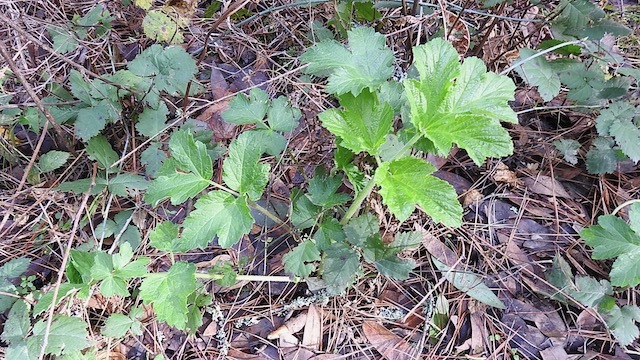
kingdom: Plantae
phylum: Tracheophyta
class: Magnoliopsida
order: Apiales
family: Apiaceae
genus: Heracleum
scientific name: Heracleum maximum
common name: American cow parsnip
